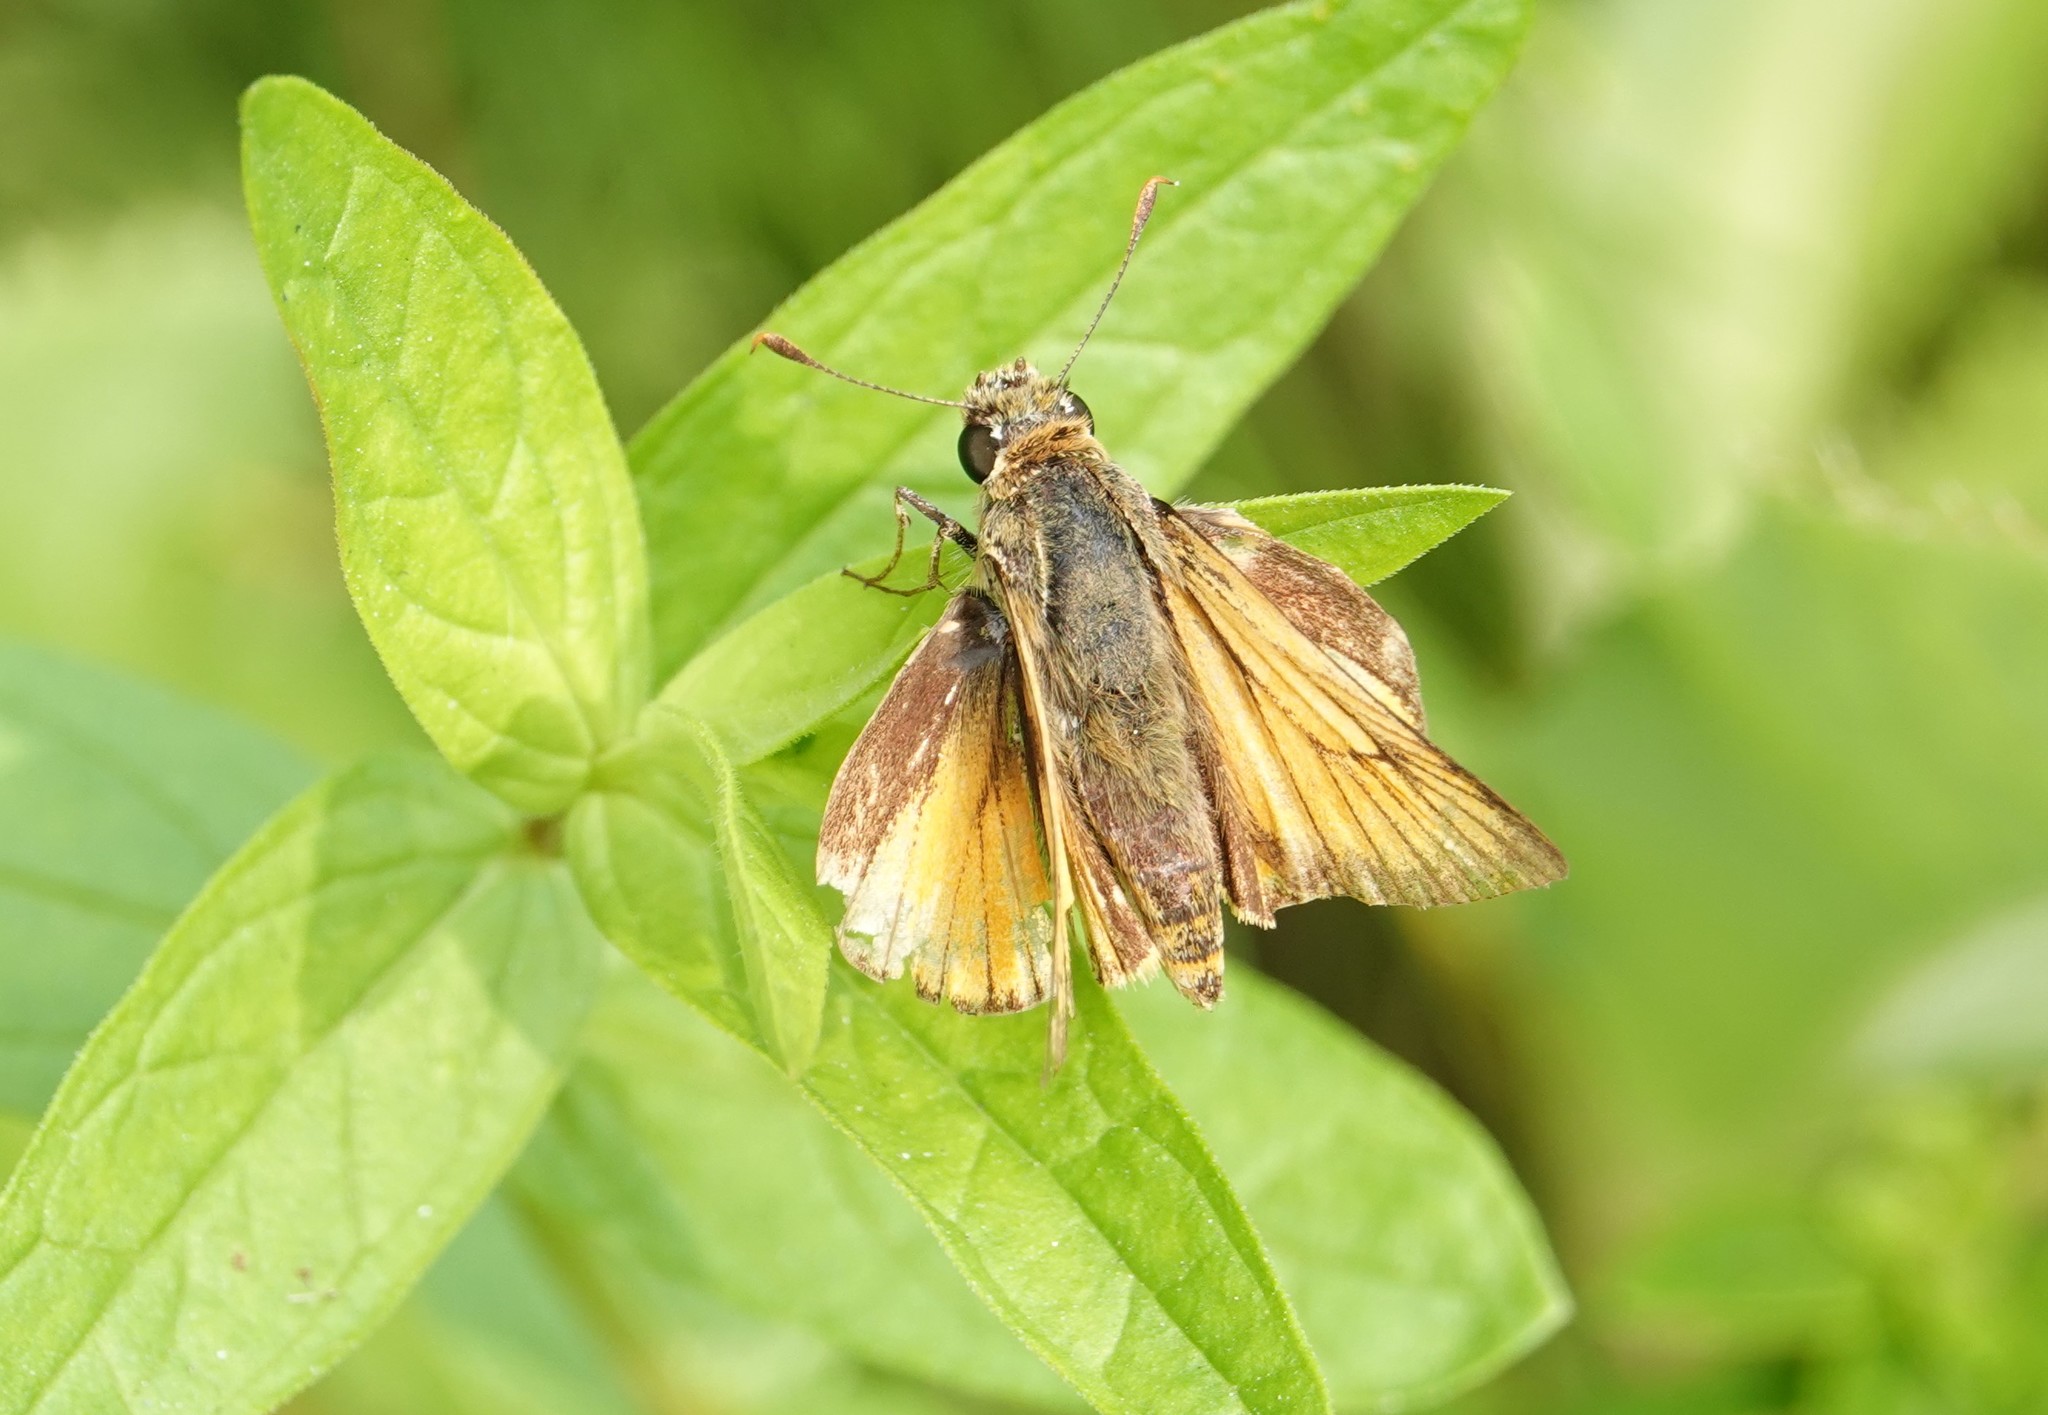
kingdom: Animalia
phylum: Arthropoda
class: Insecta
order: Lepidoptera
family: Hesperiidae
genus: Atrytone
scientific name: Atrytone delaware
